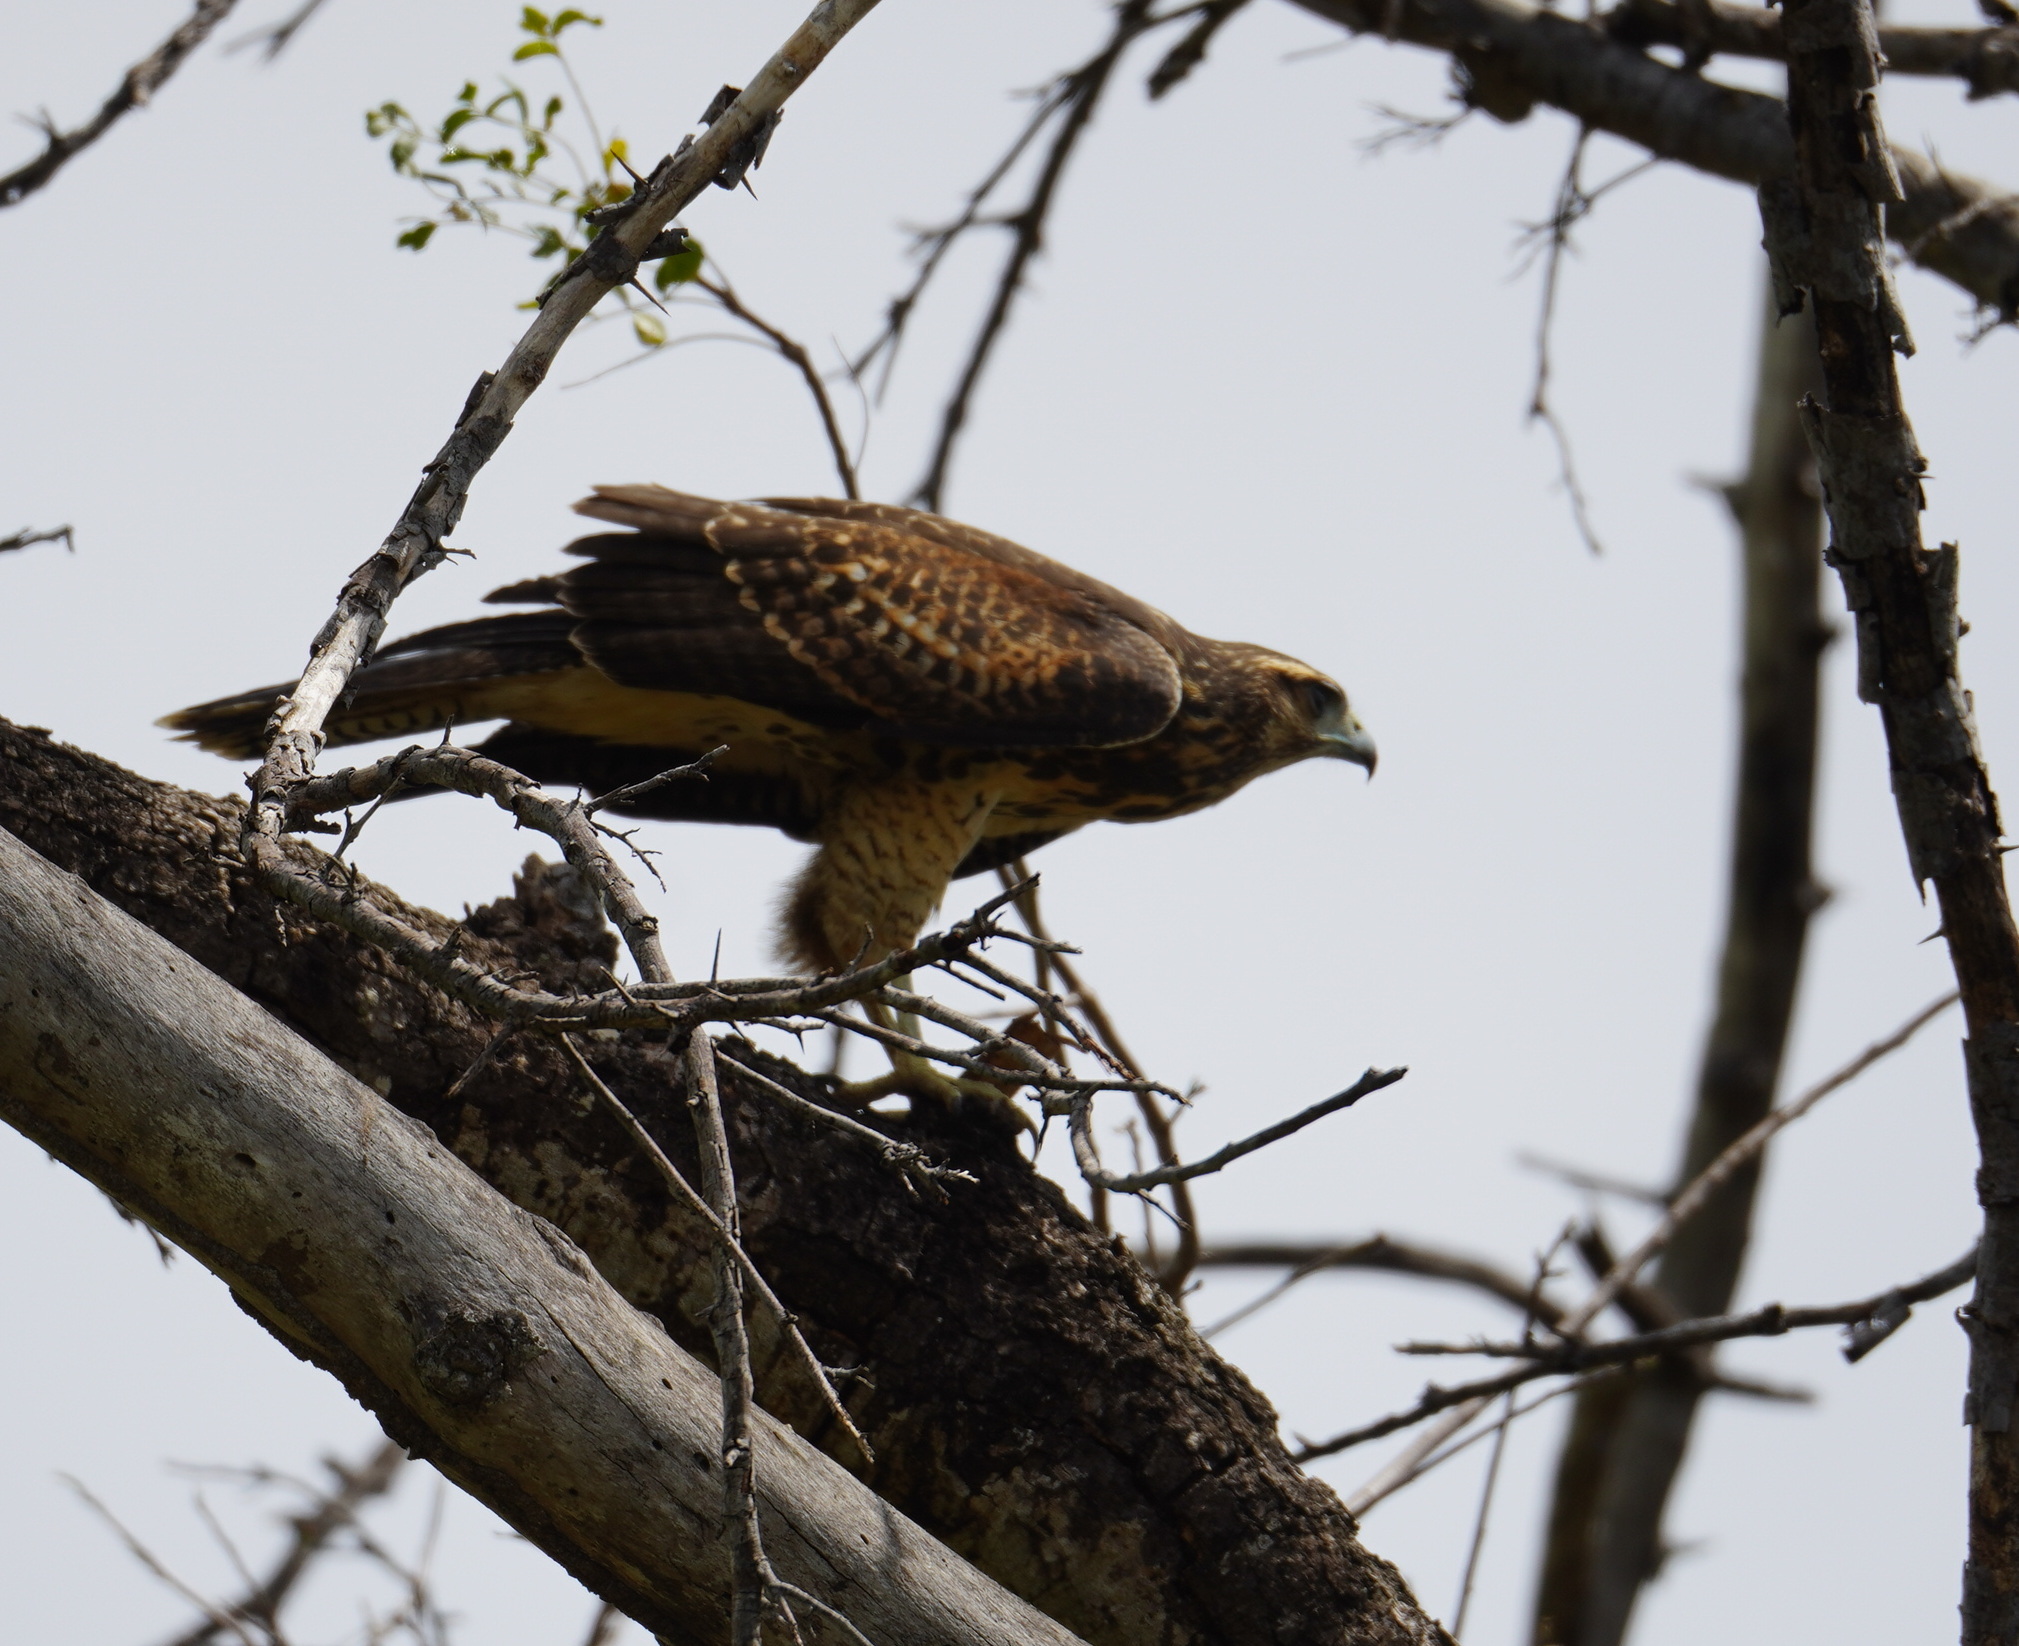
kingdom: Animalia
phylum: Chordata
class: Aves
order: Accipitriformes
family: Accipitridae
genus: Parabuteo
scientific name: Parabuteo unicinctus
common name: Harris's hawk
